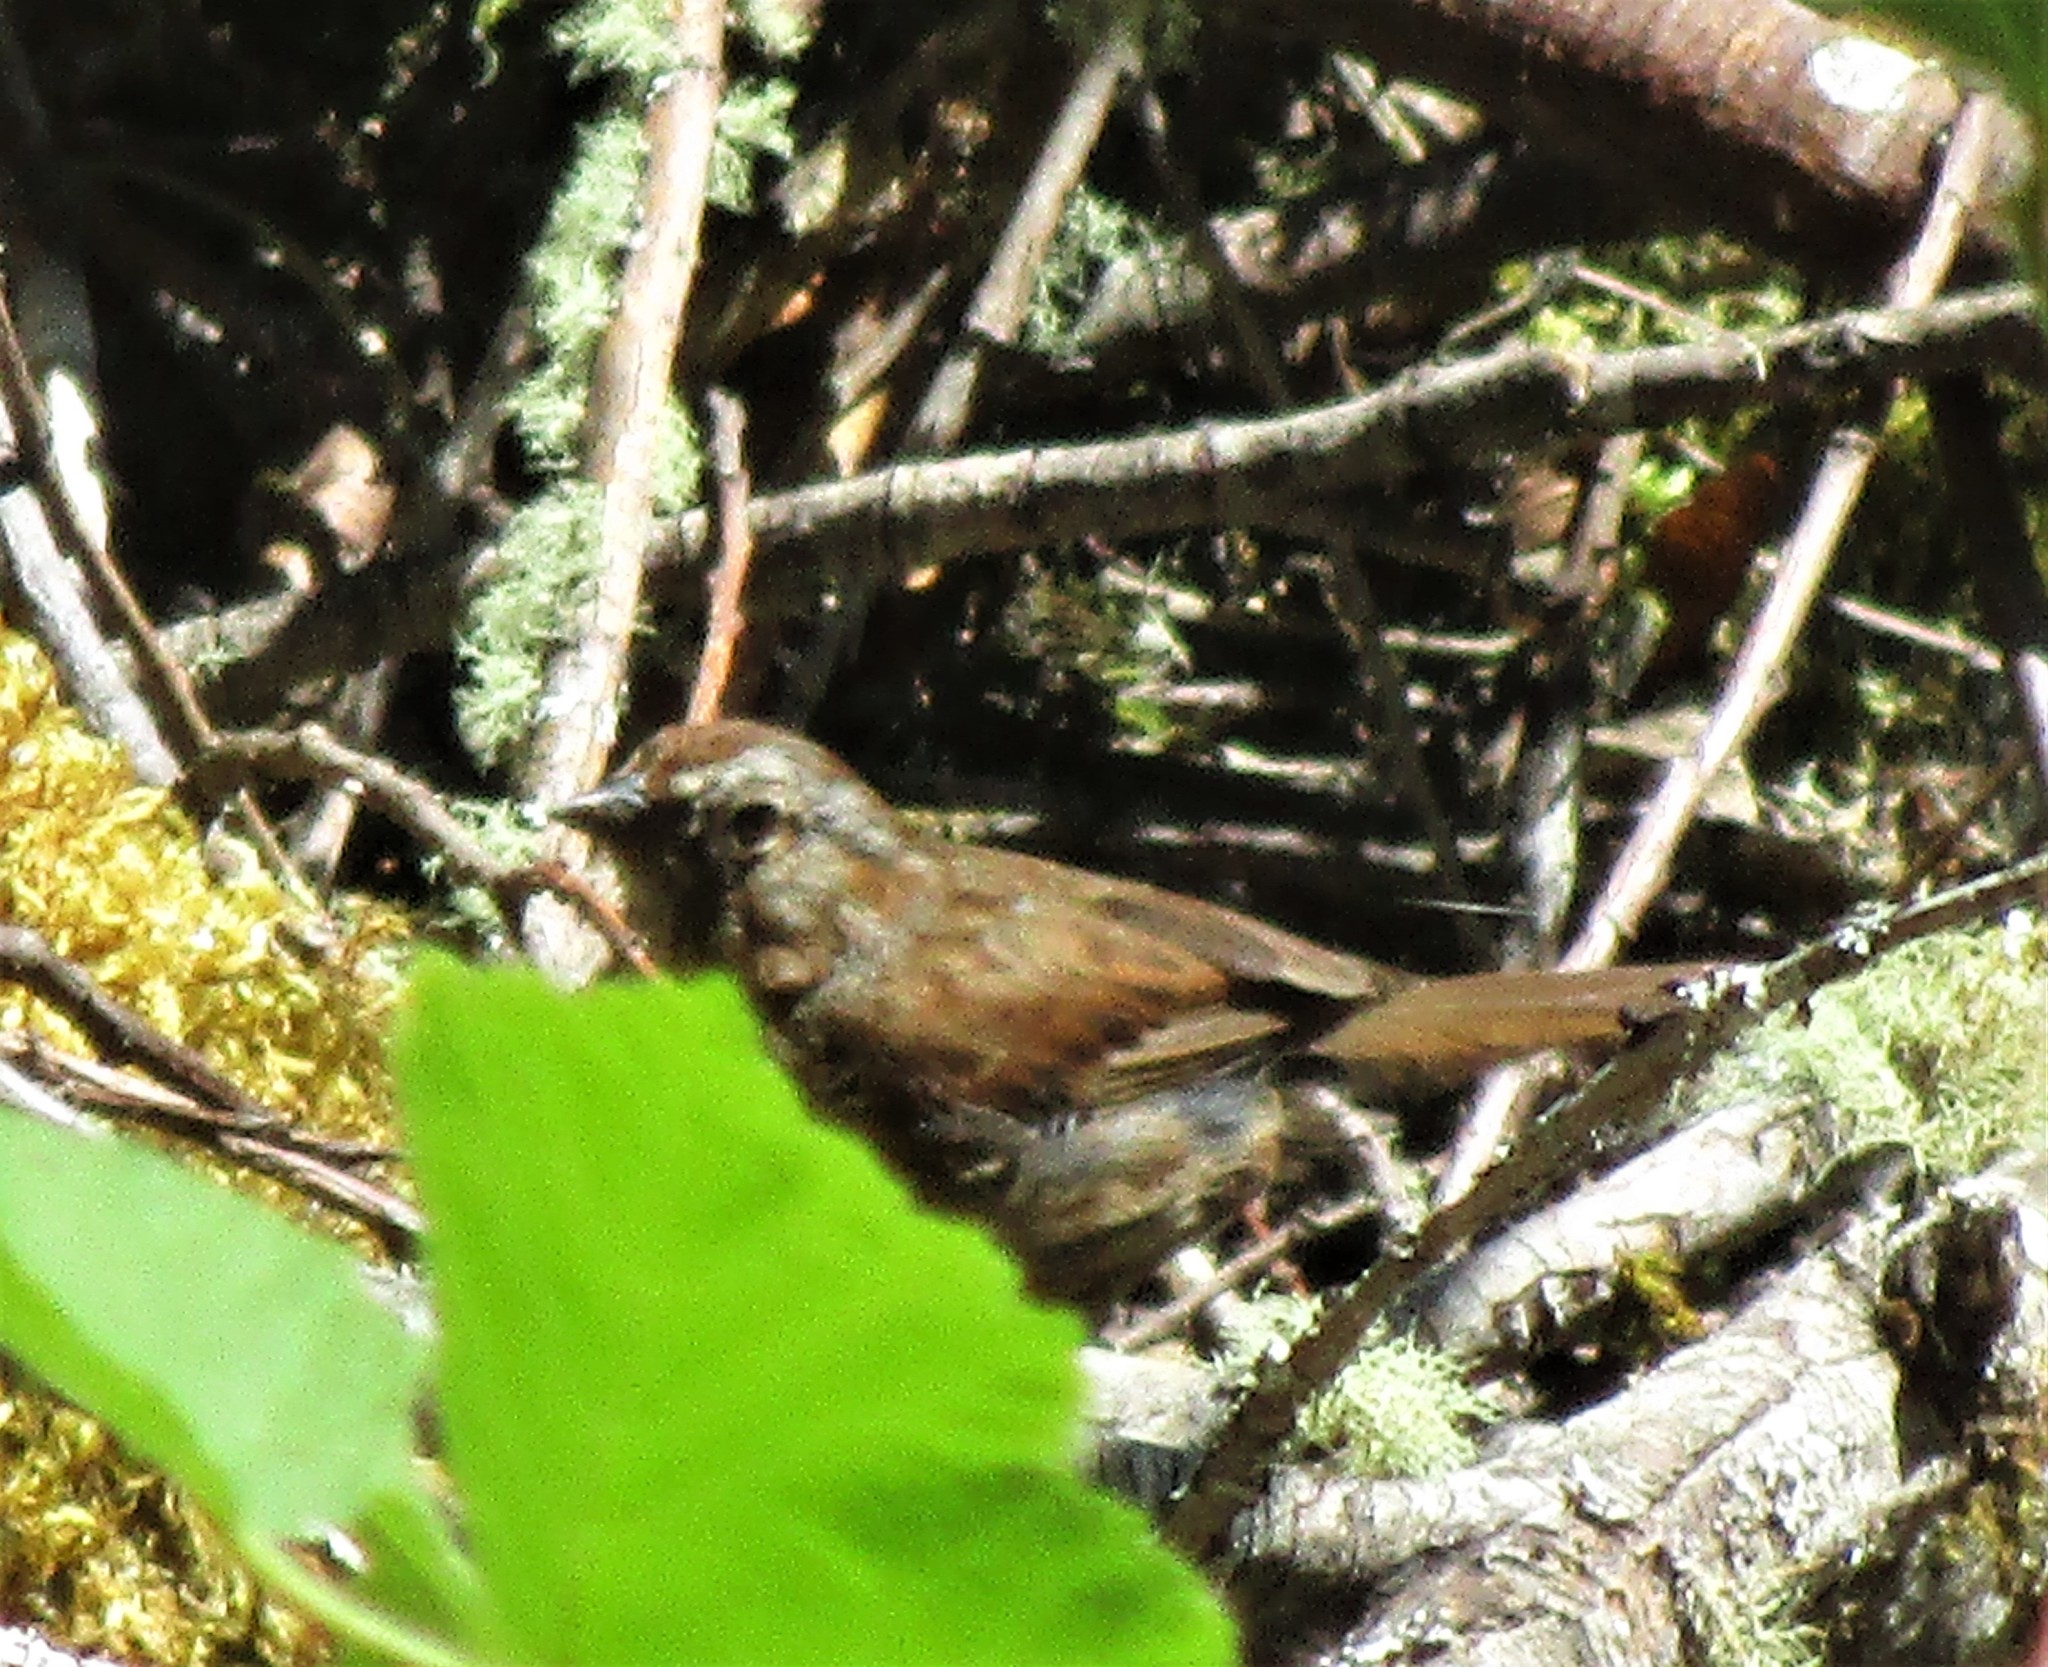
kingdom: Animalia
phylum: Chordata
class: Aves
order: Passeriformes
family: Passerellidae
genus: Melospiza
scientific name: Melospiza melodia
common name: Song sparrow
